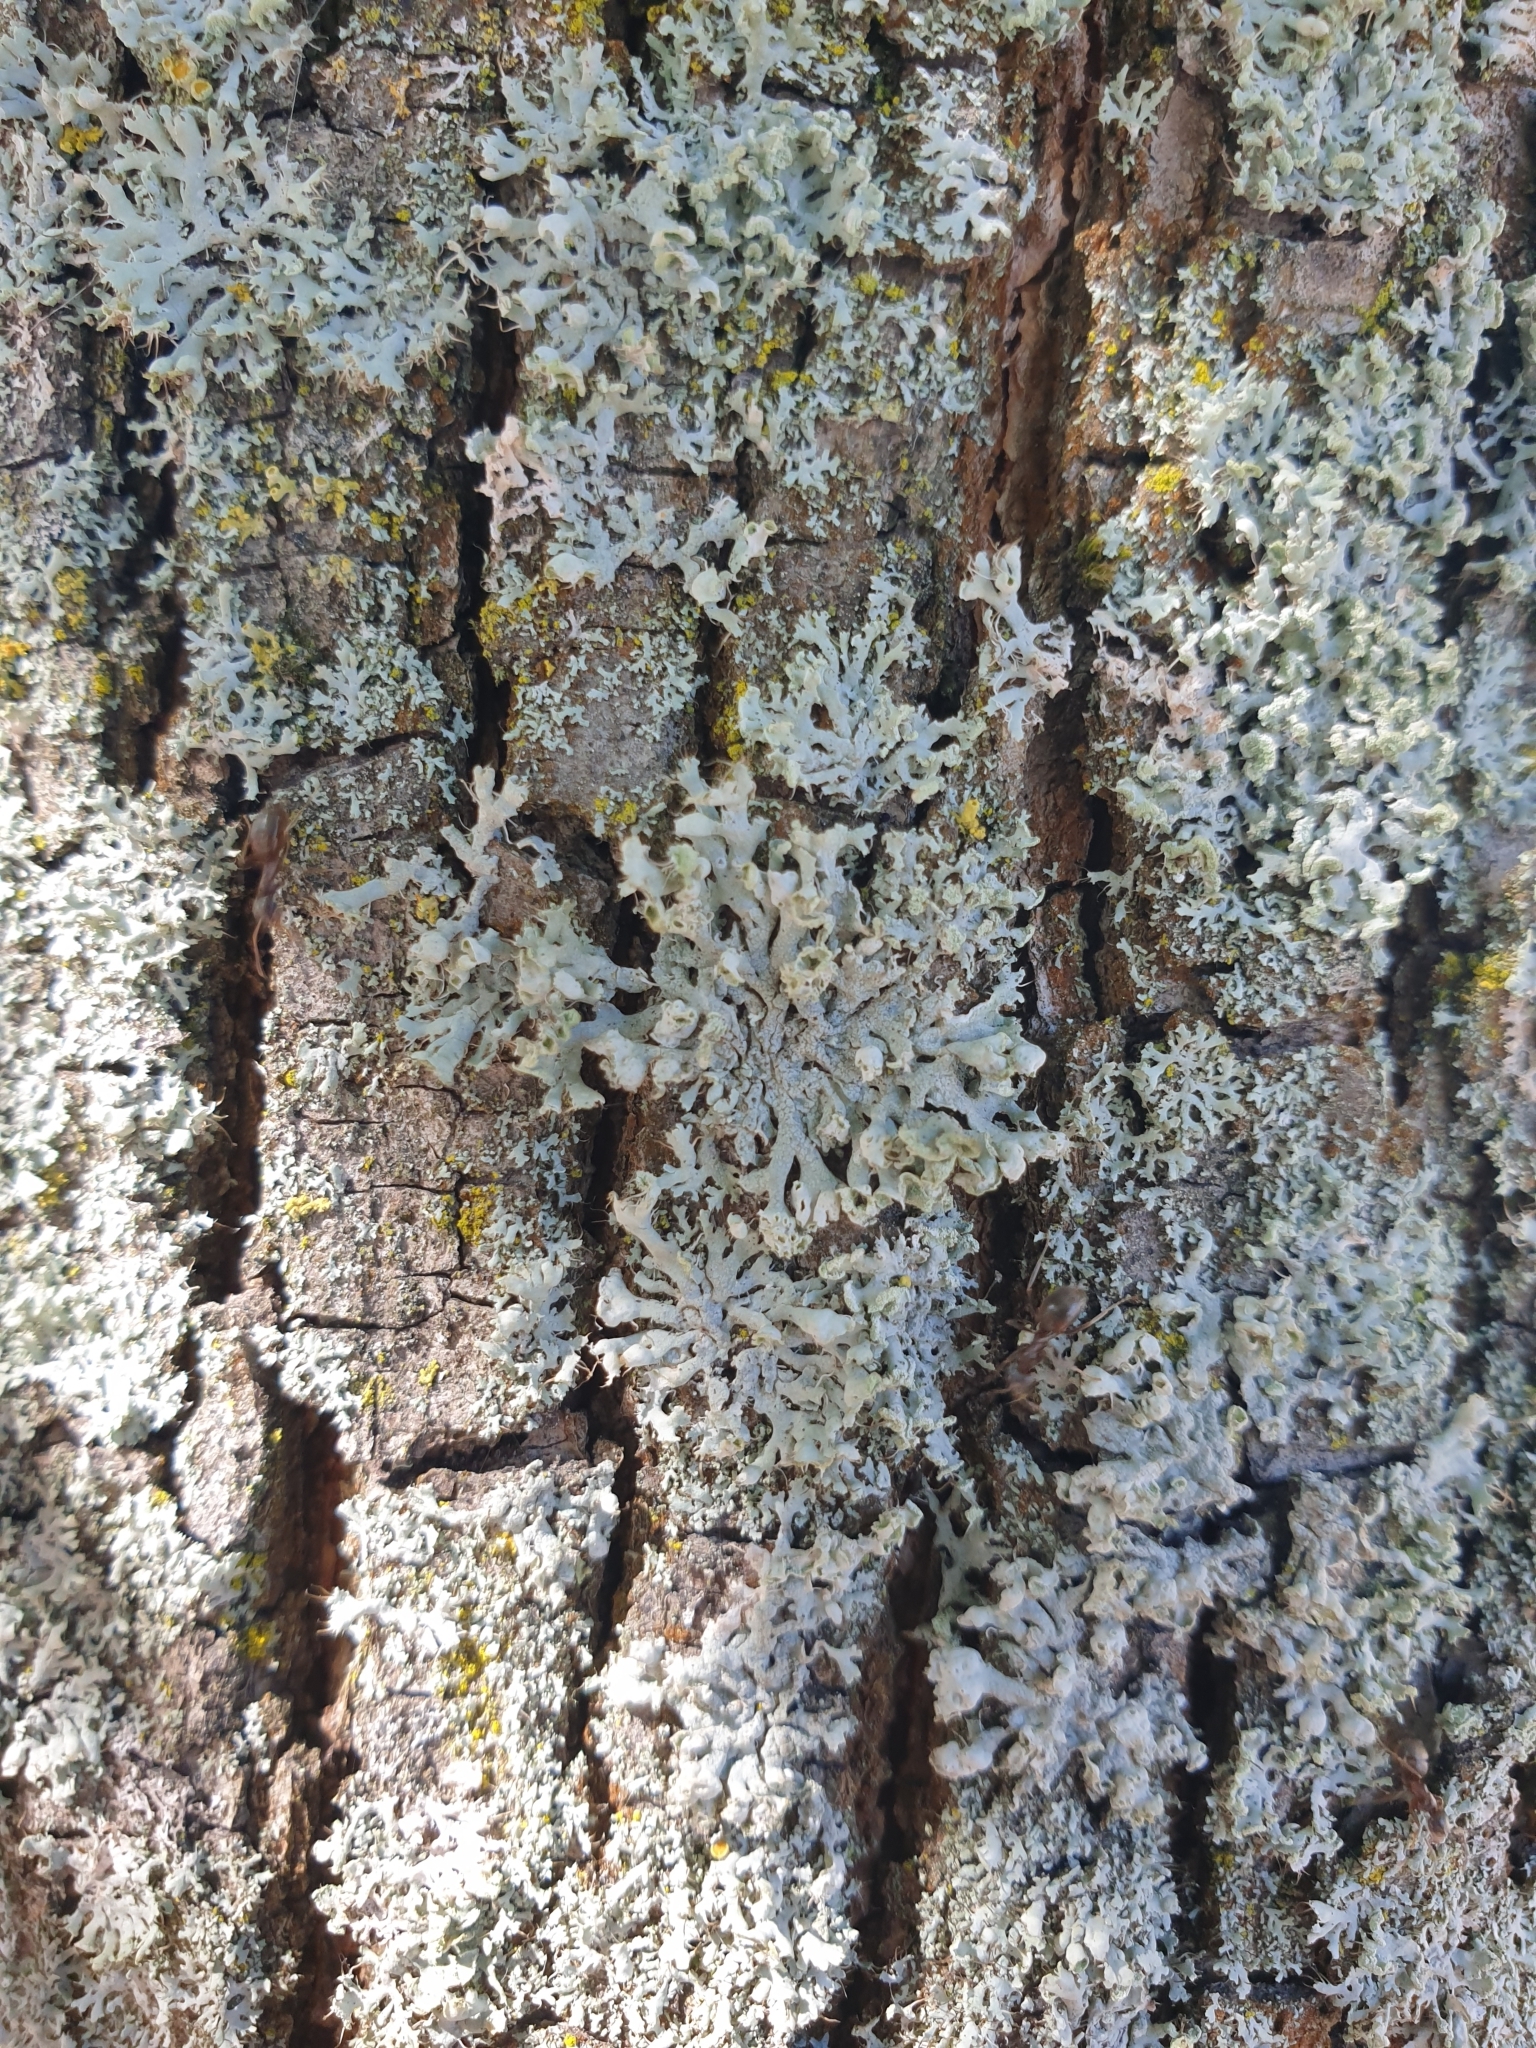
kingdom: Fungi
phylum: Ascomycota
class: Lecanoromycetes
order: Caliciales
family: Physciaceae
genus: Physcia
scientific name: Physcia adscendens
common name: Hooded rosette lichen
